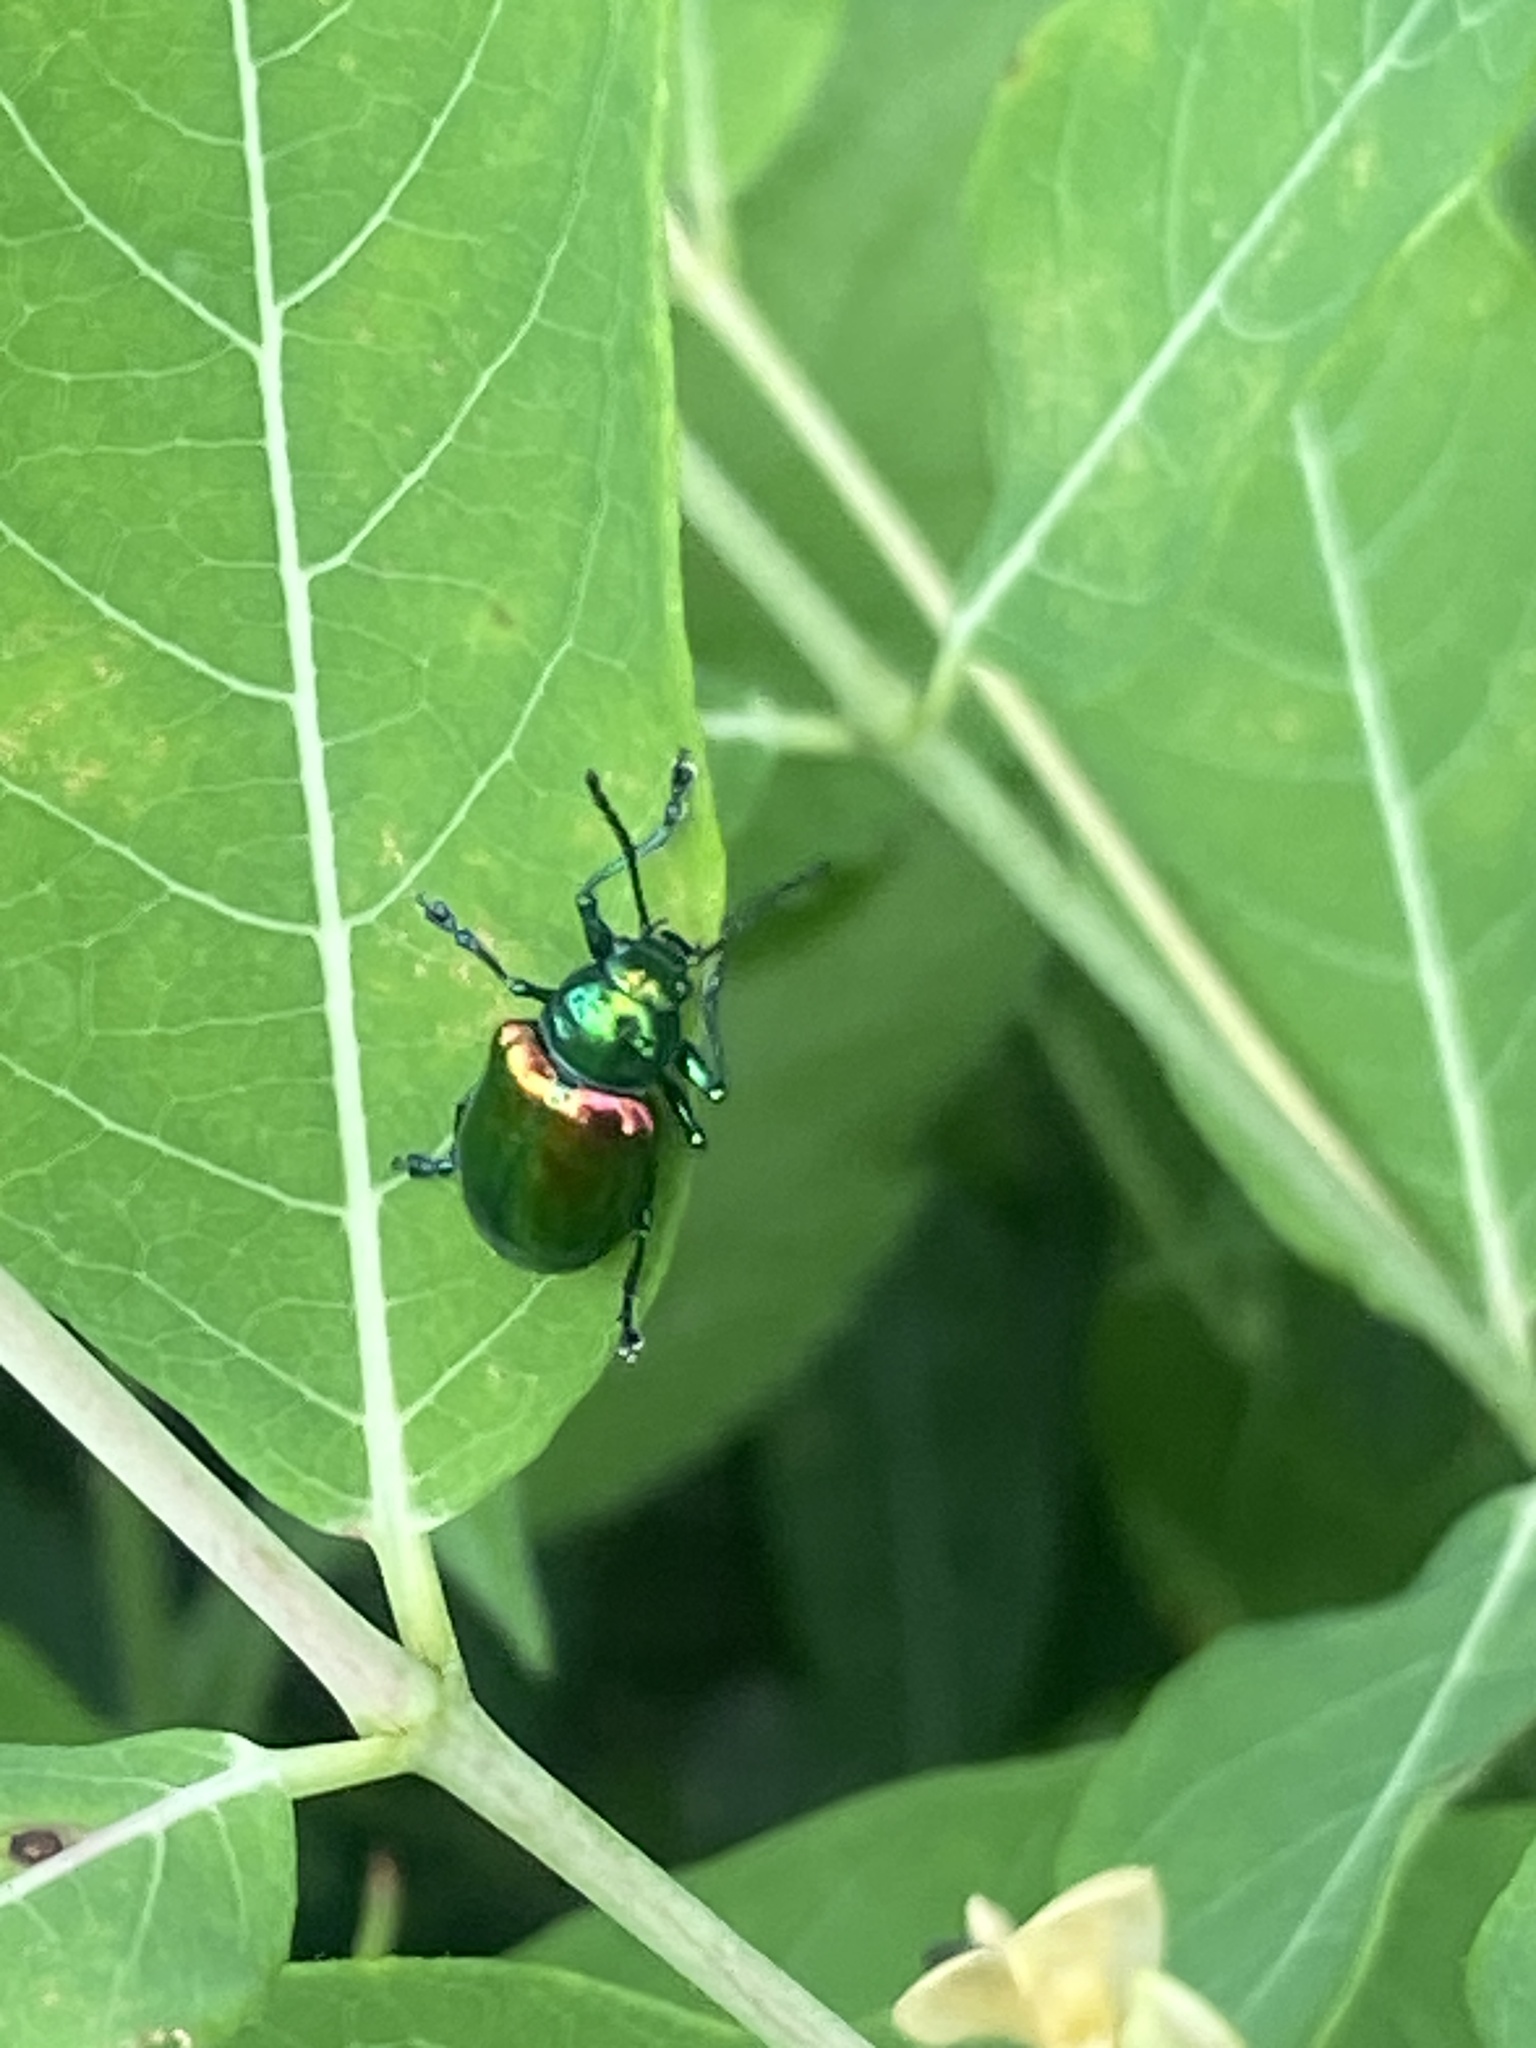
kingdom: Animalia
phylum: Arthropoda
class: Insecta
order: Coleoptera
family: Chrysomelidae
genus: Chrysochus
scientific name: Chrysochus auratus
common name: Dogbane leaf beetle
